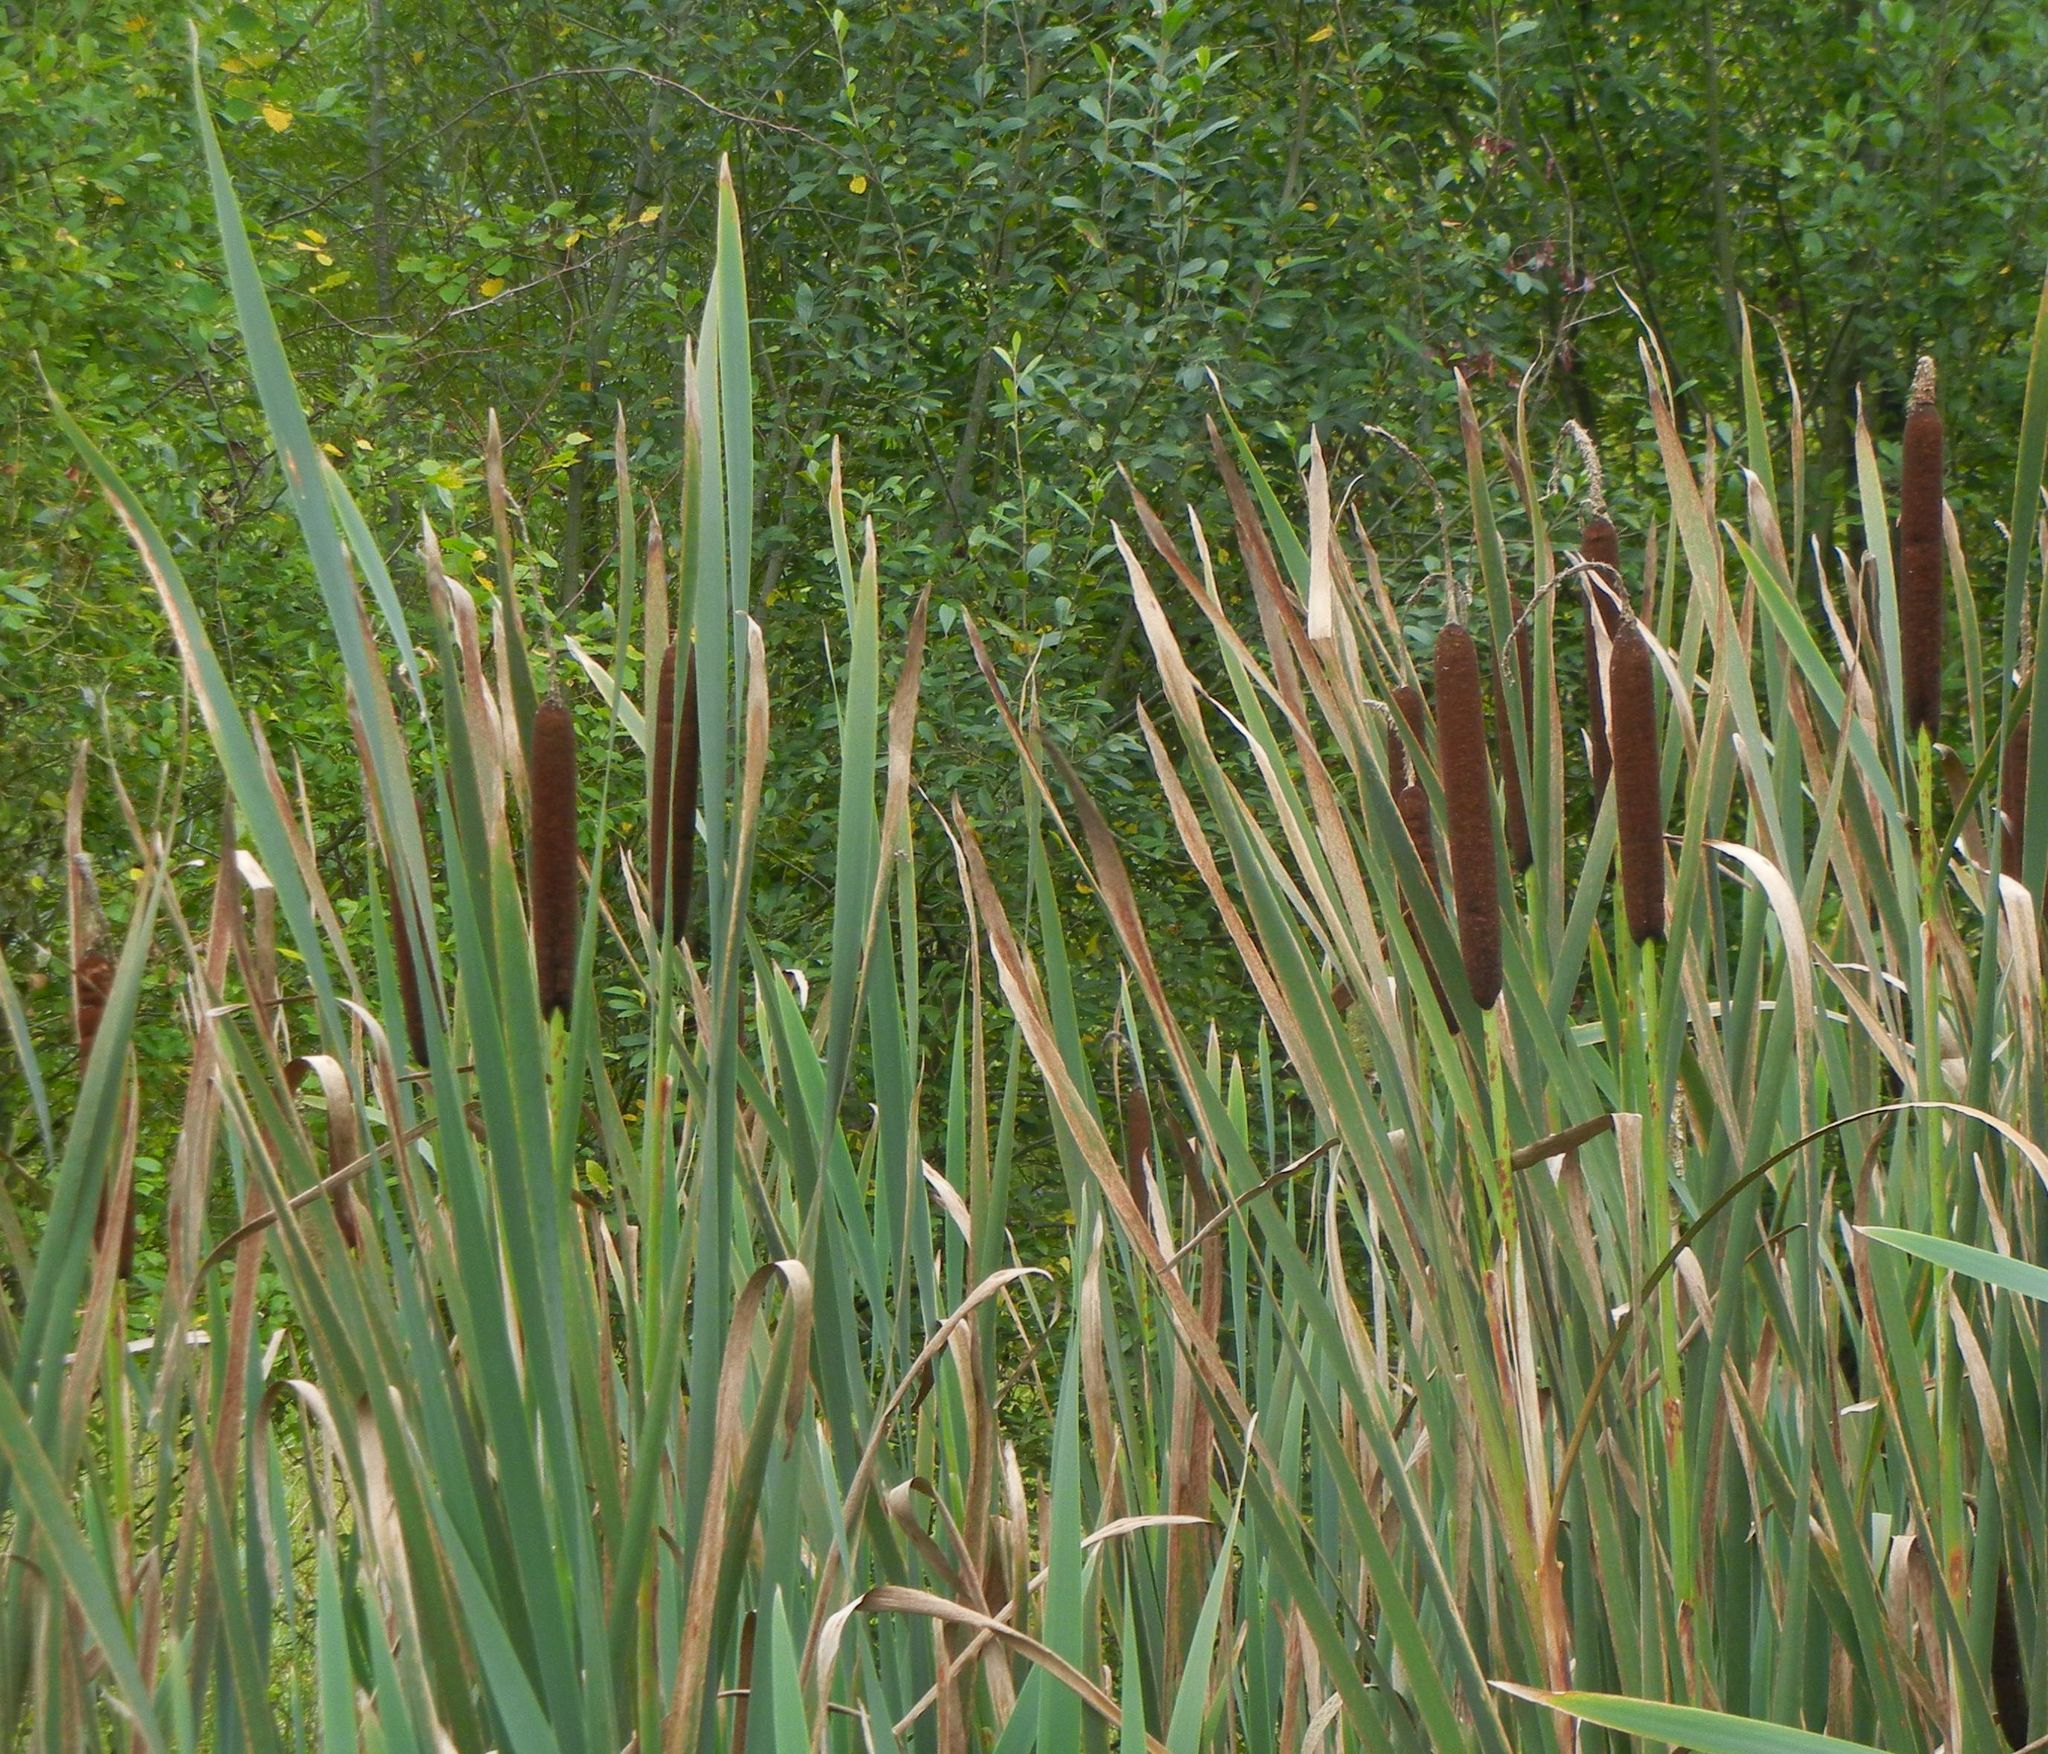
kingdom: Plantae
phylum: Tracheophyta
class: Liliopsida
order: Poales
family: Typhaceae
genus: Typha
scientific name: Typha latifolia
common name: Broadleaf cattail
